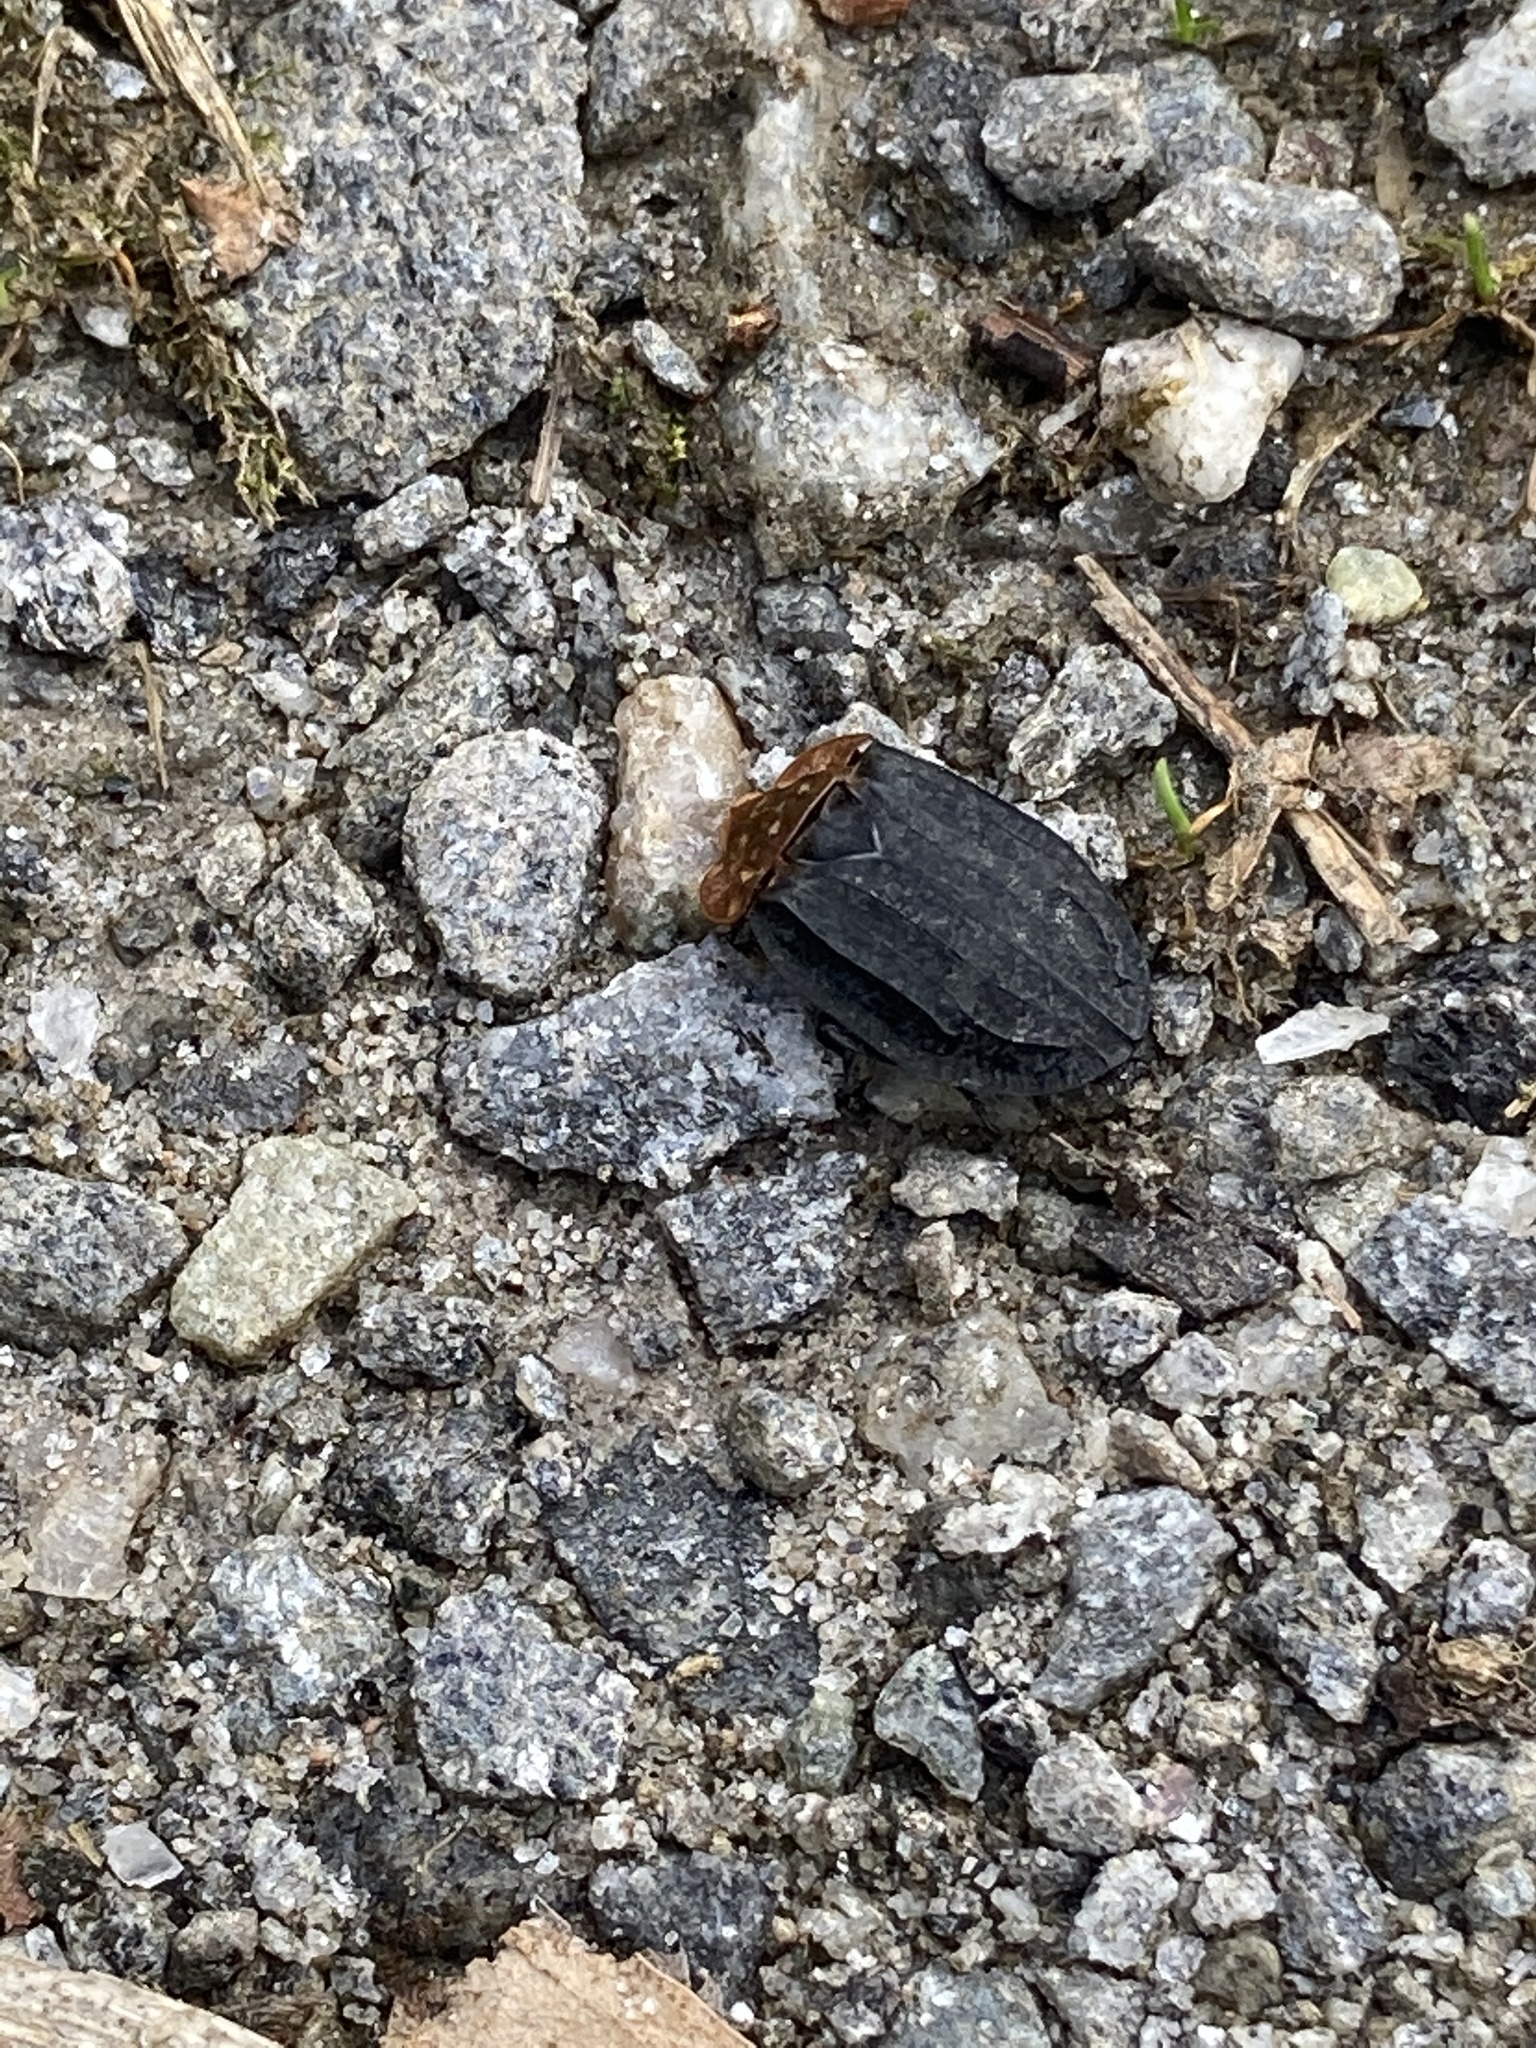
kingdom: Animalia
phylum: Arthropoda
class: Insecta
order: Coleoptera
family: Staphylinidae
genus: Oiceoptoma
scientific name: Oiceoptoma thoracicum
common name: Red-breasted carrion beetle
